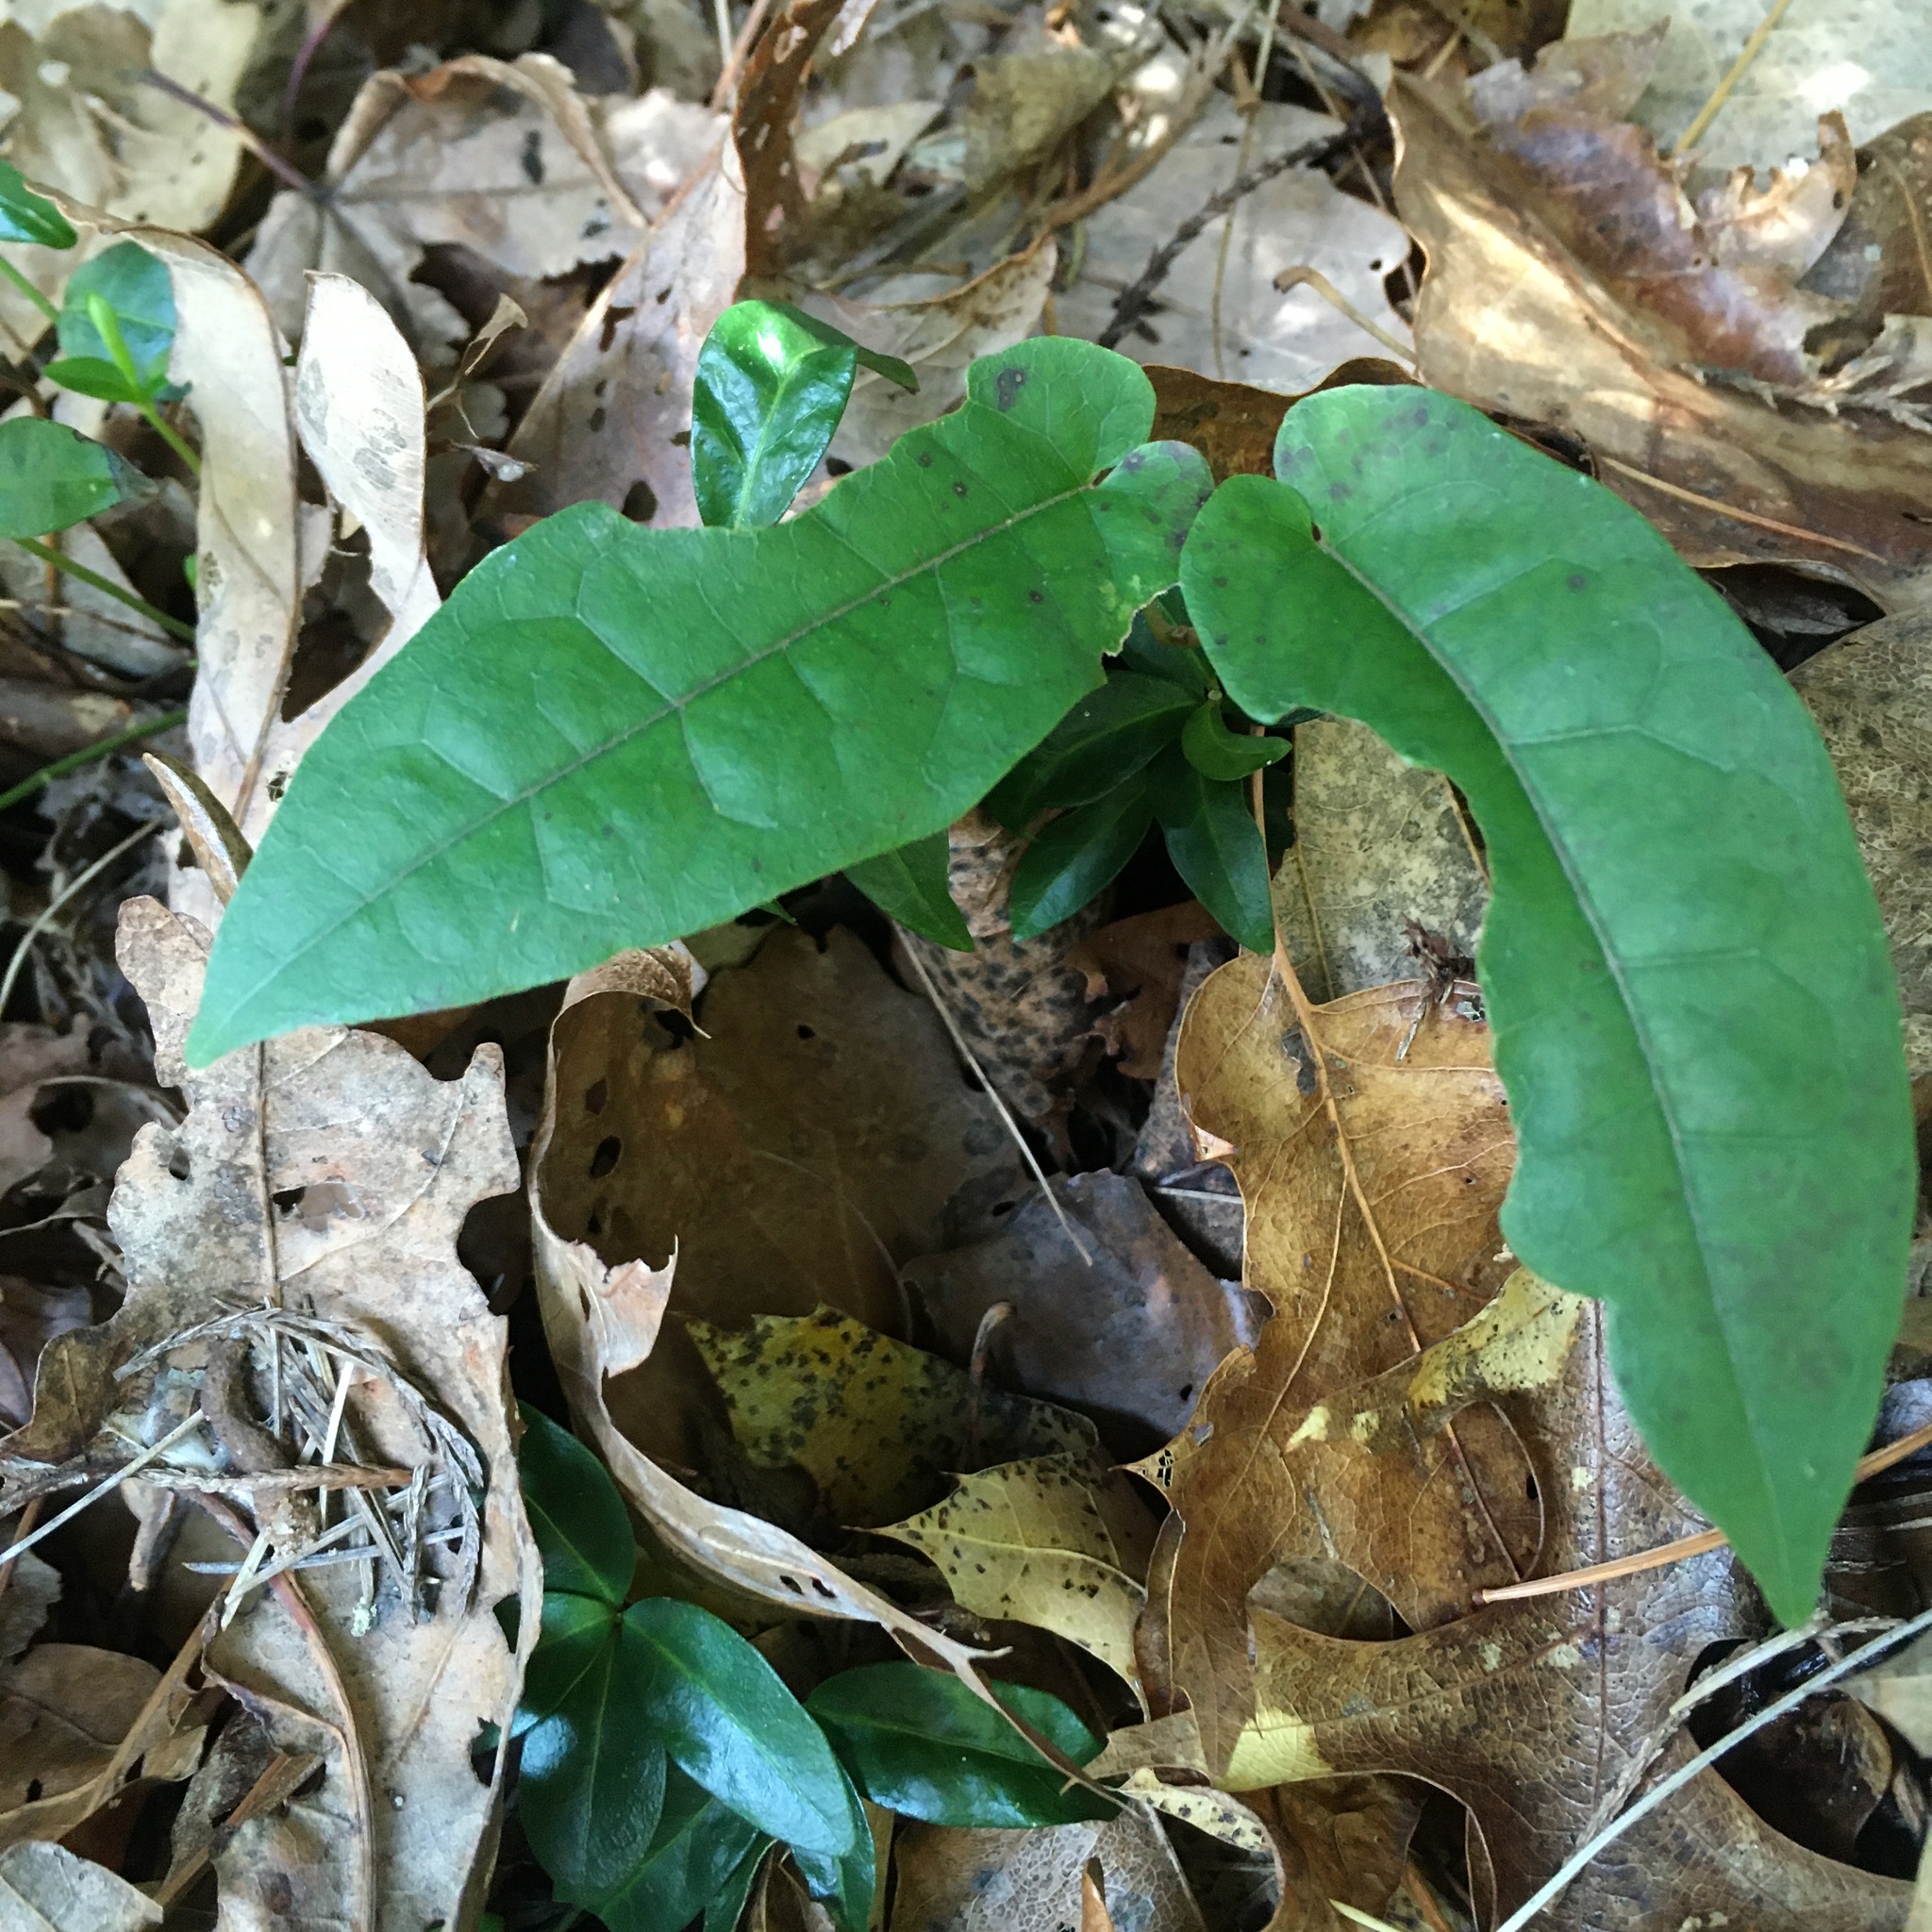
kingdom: Plantae
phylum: Tracheophyta
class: Magnoliopsida
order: Lamiales
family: Bignoniaceae
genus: Bignonia
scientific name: Bignonia capreolata
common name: Crossvine
